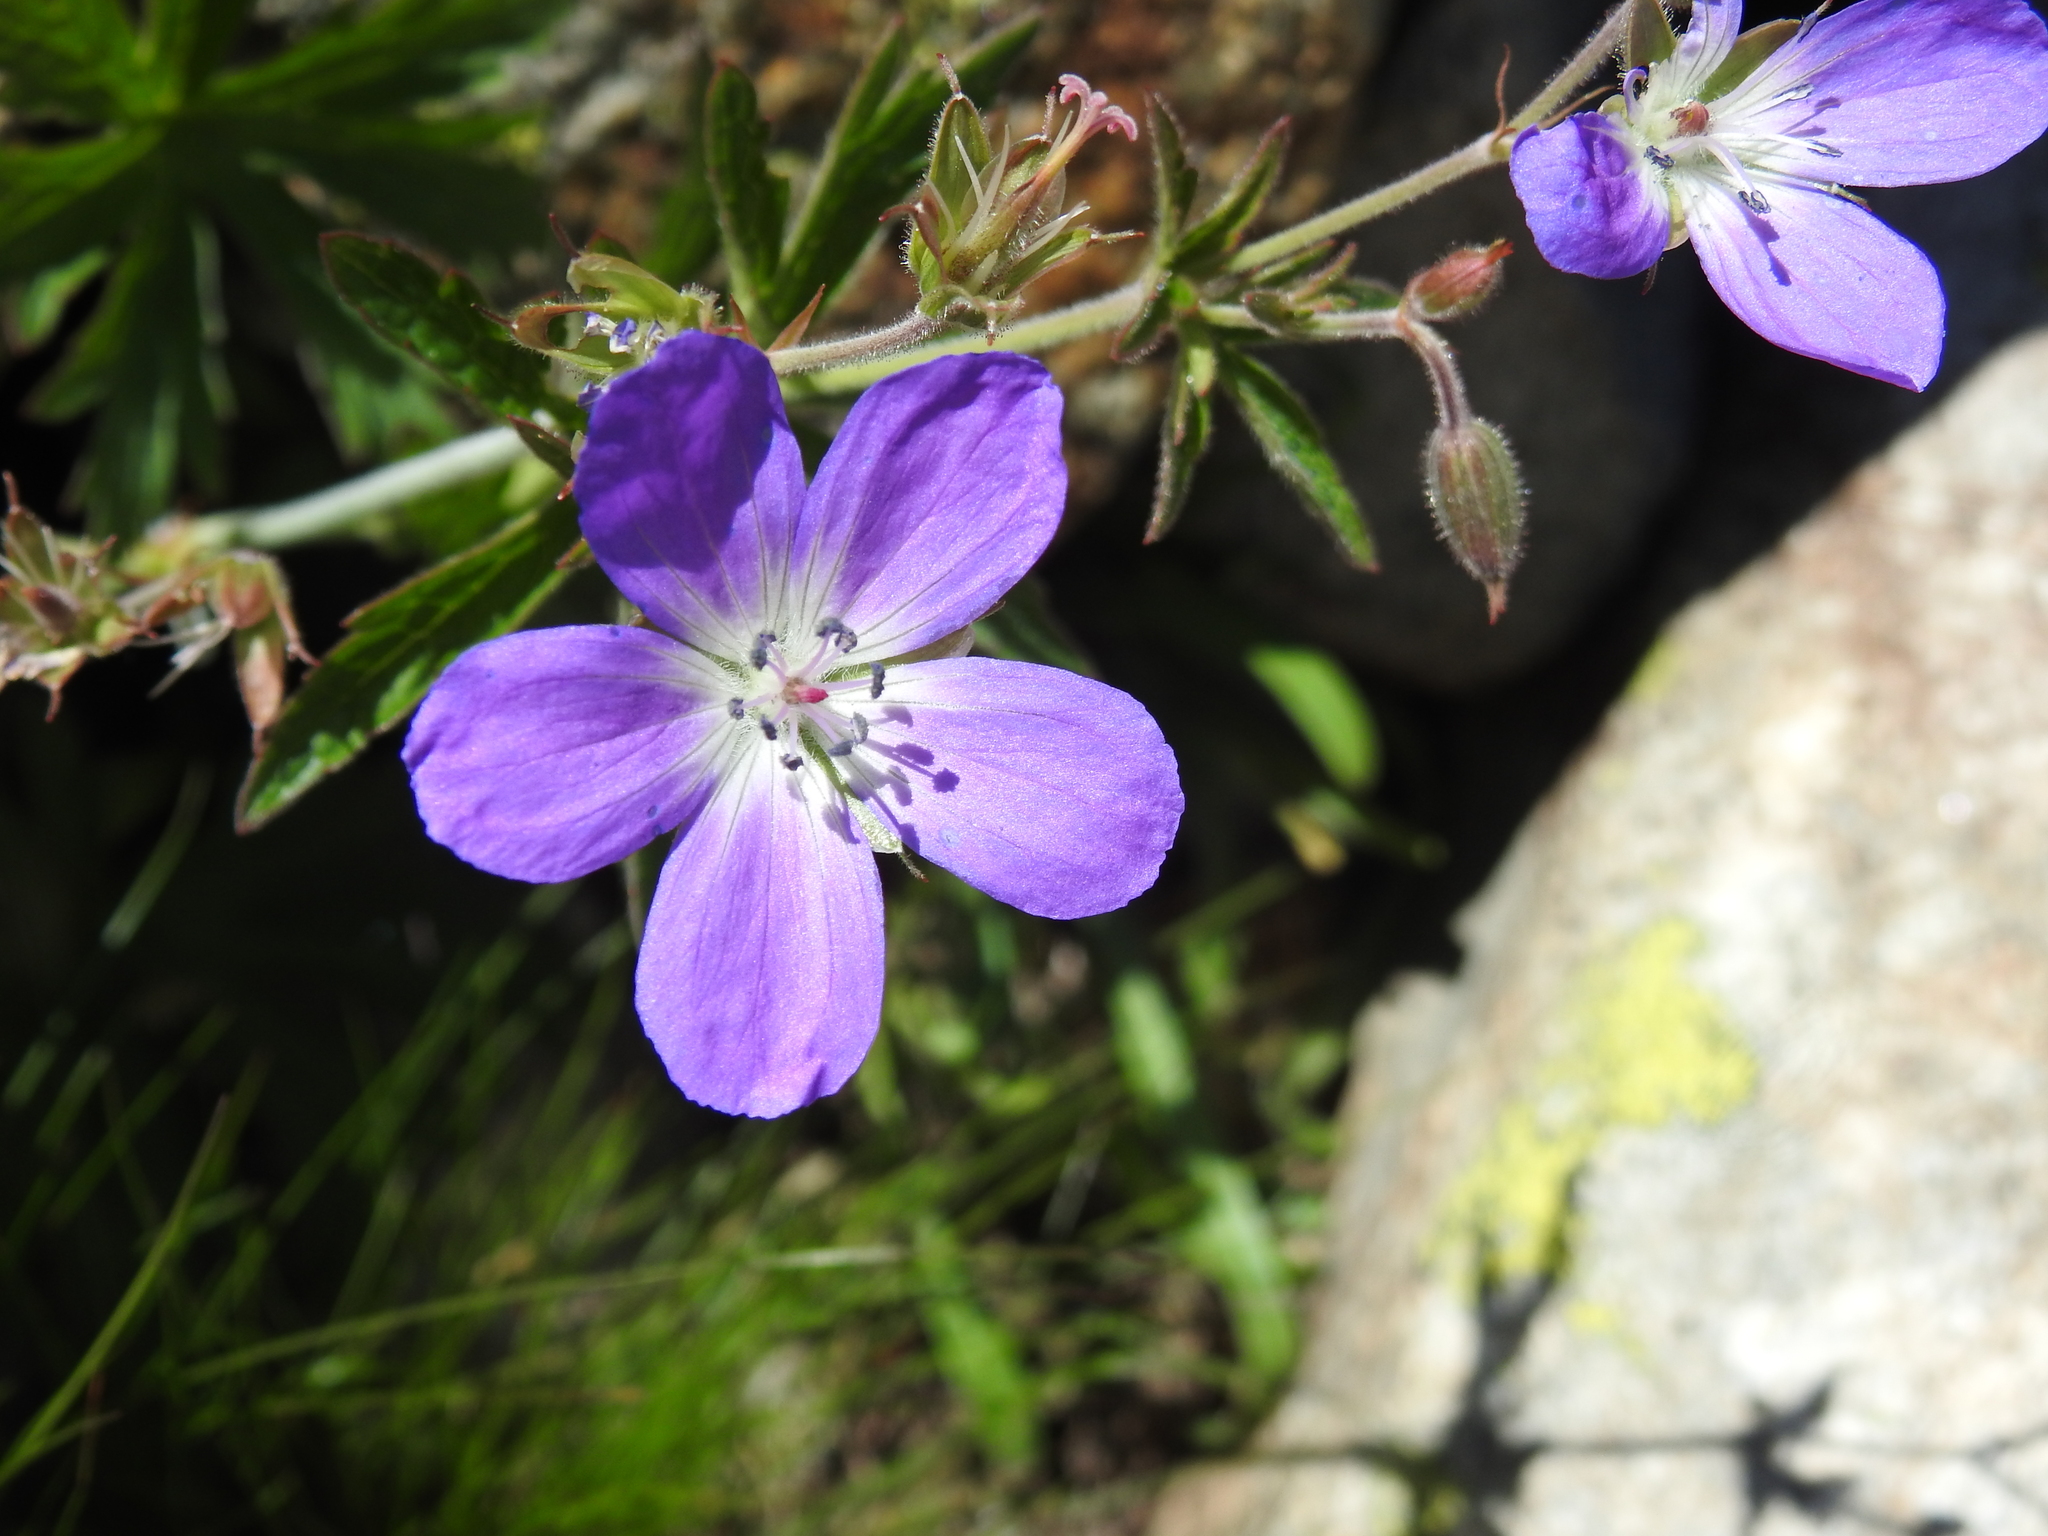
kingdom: Plantae
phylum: Tracheophyta
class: Magnoliopsida
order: Geraniales
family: Geraniaceae
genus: Geranium
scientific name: Geranium sylvaticum
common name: Wood crane's-bill
